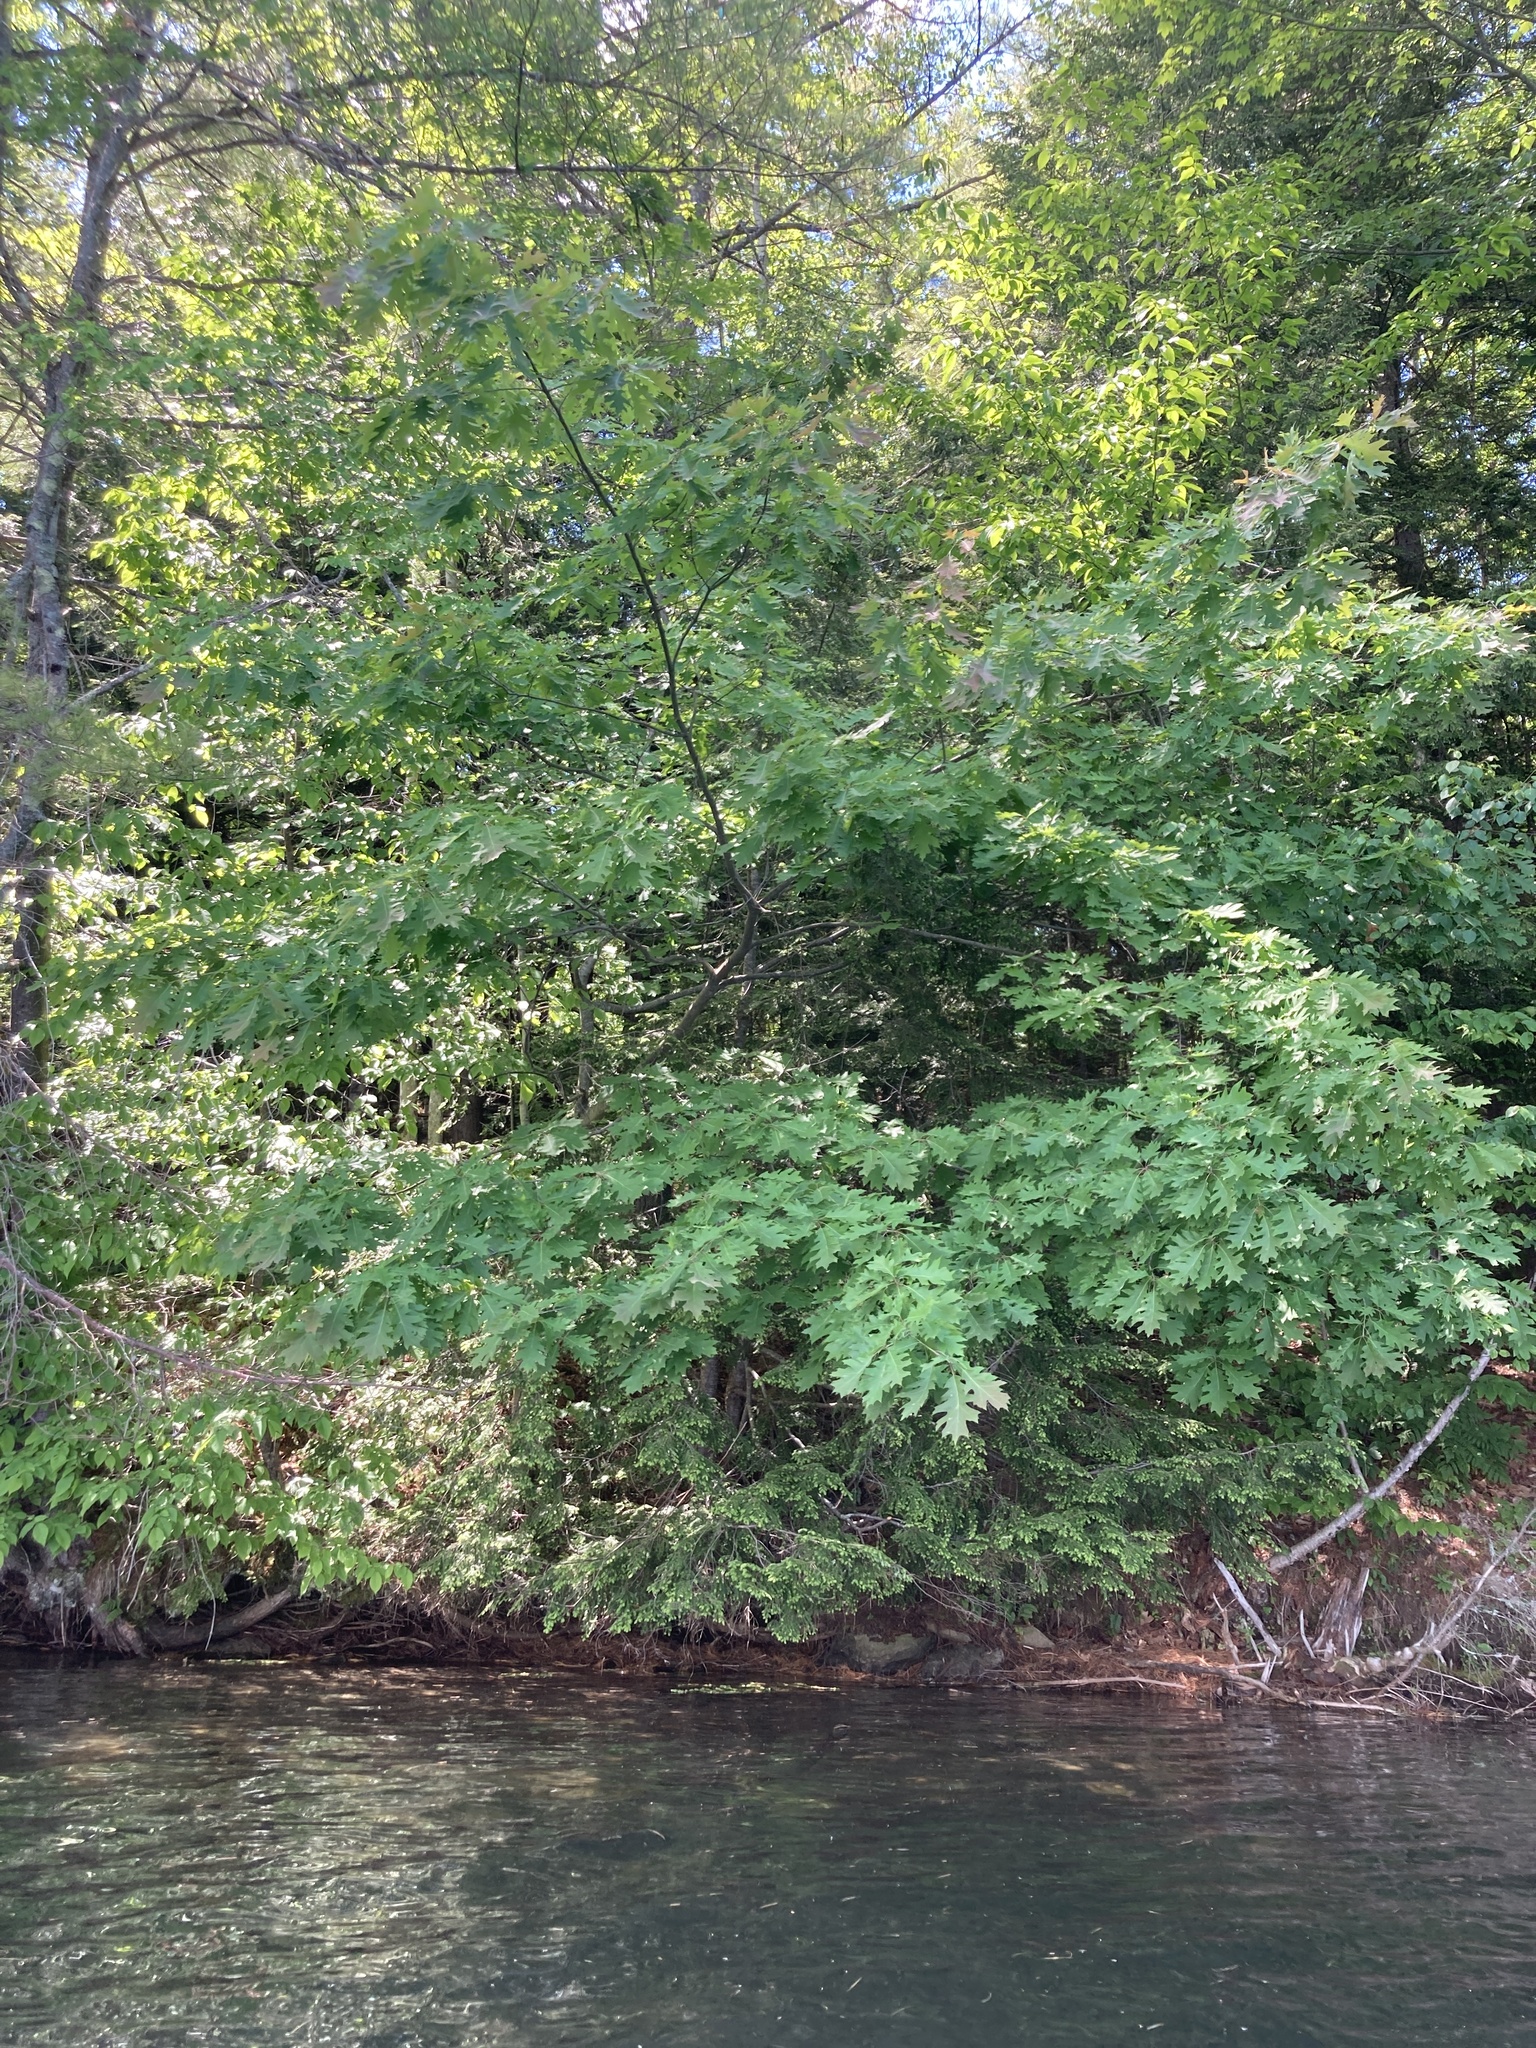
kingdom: Plantae
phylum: Tracheophyta
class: Magnoliopsida
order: Fagales
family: Fagaceae
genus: Quercus
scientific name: Quercus rubra
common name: Red oak
